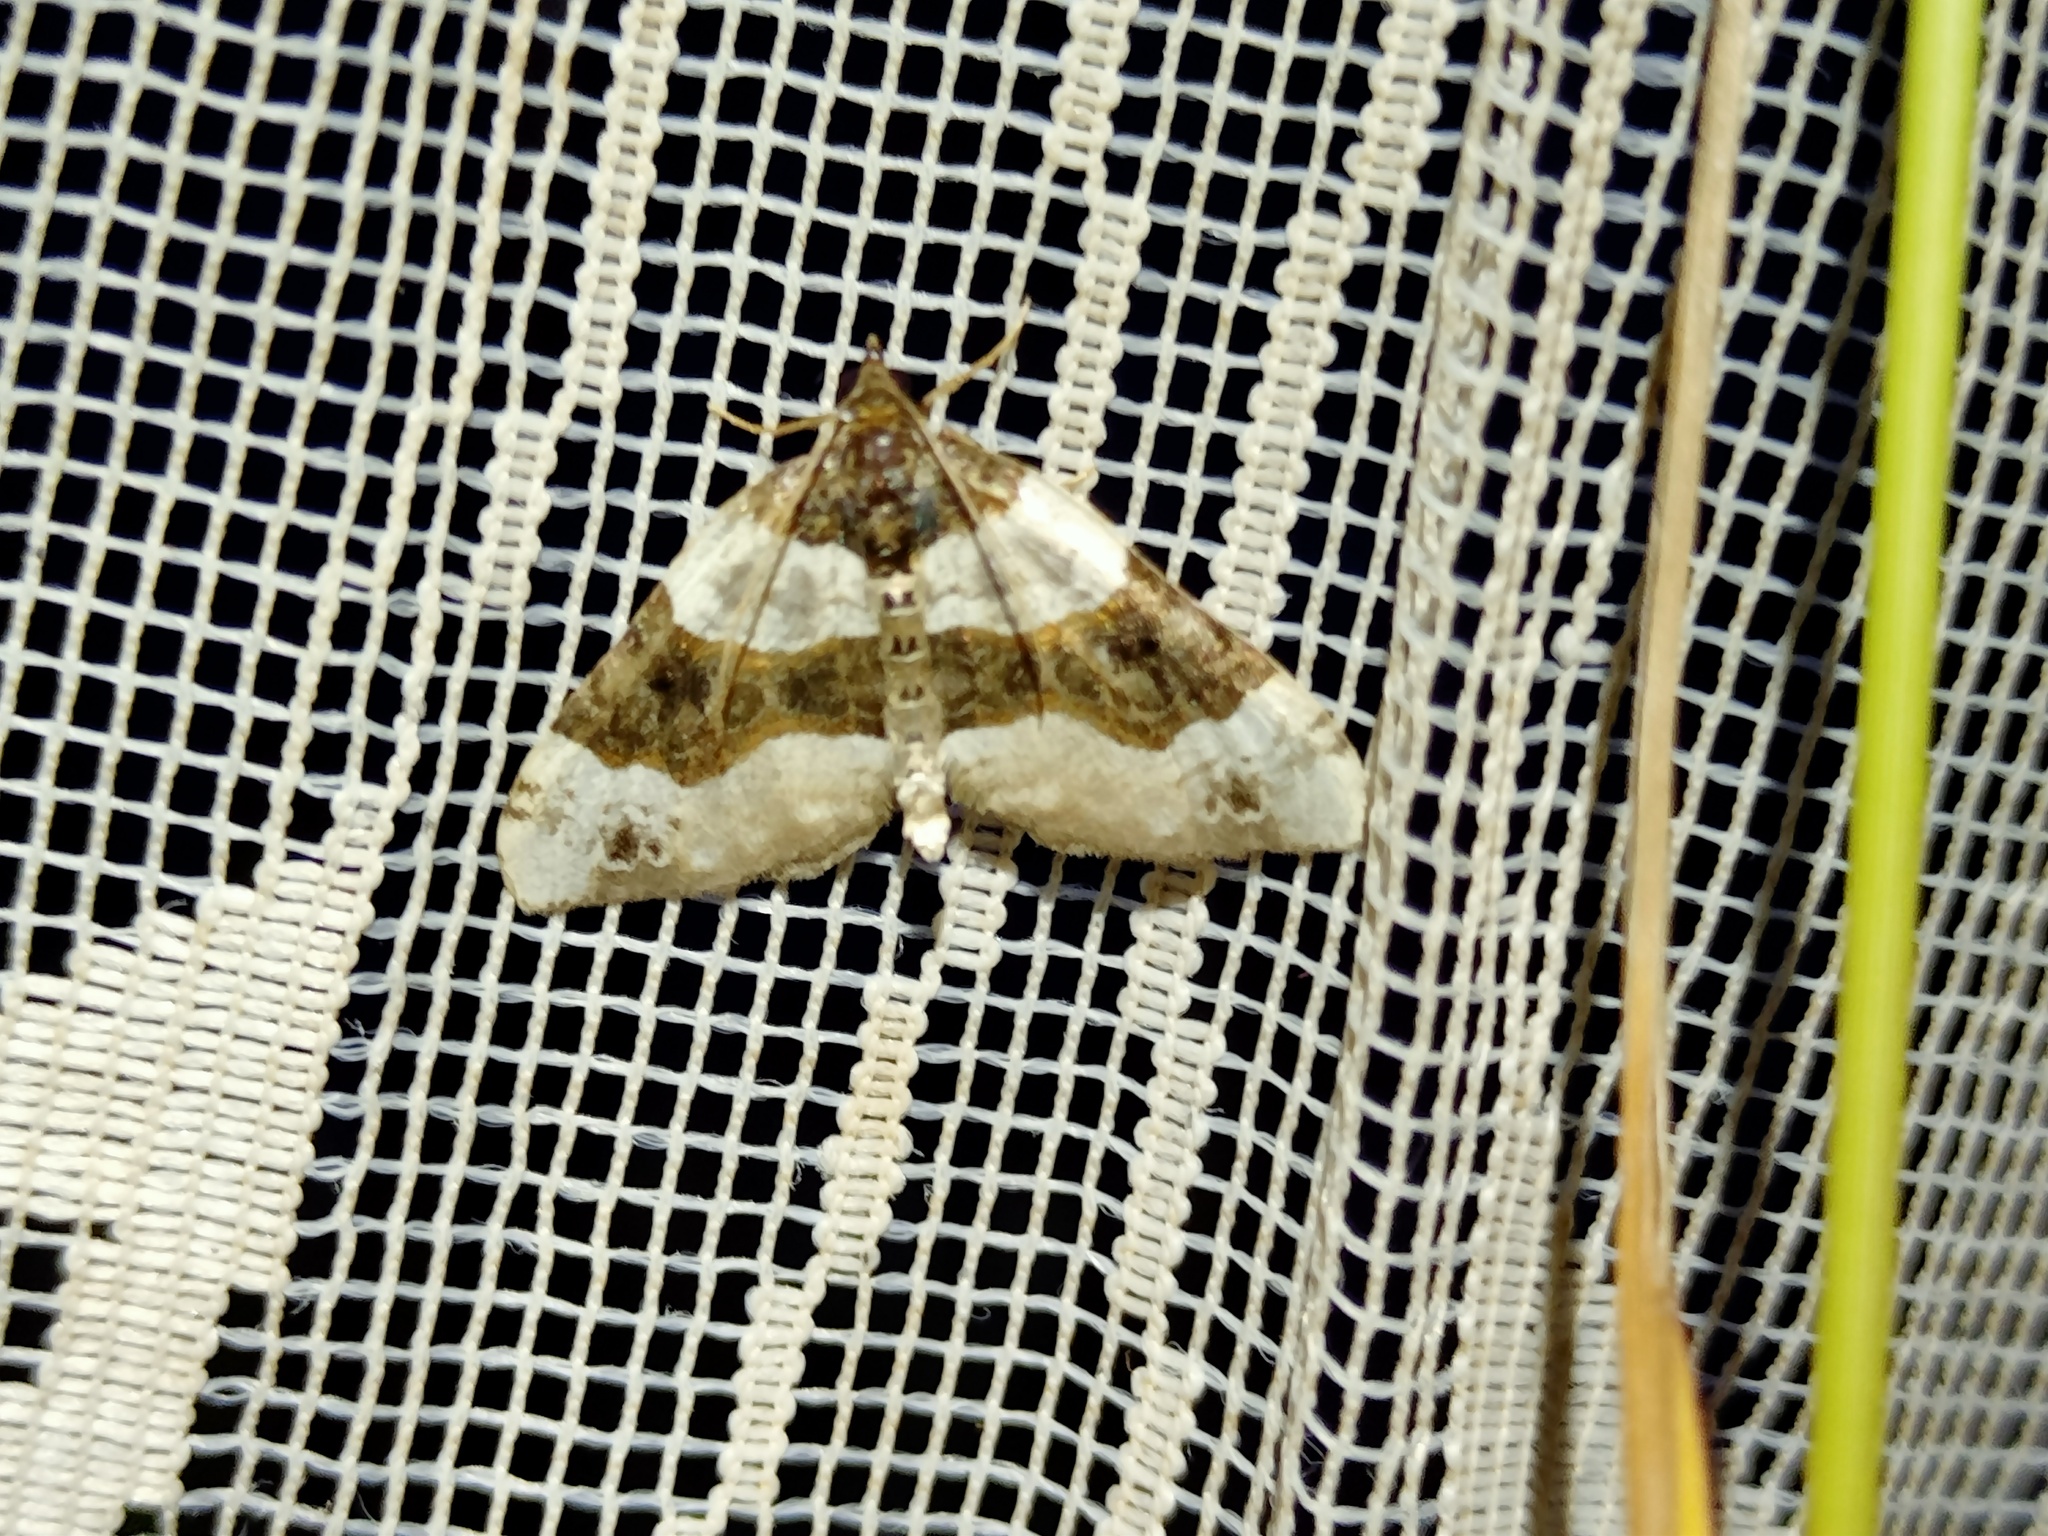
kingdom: Animalia
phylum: Arthropoda
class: Insecta
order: Lepidoptera
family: Geometridae
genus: Cosmorhoe
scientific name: Cosmorhoe ocellata
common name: Purple bar
